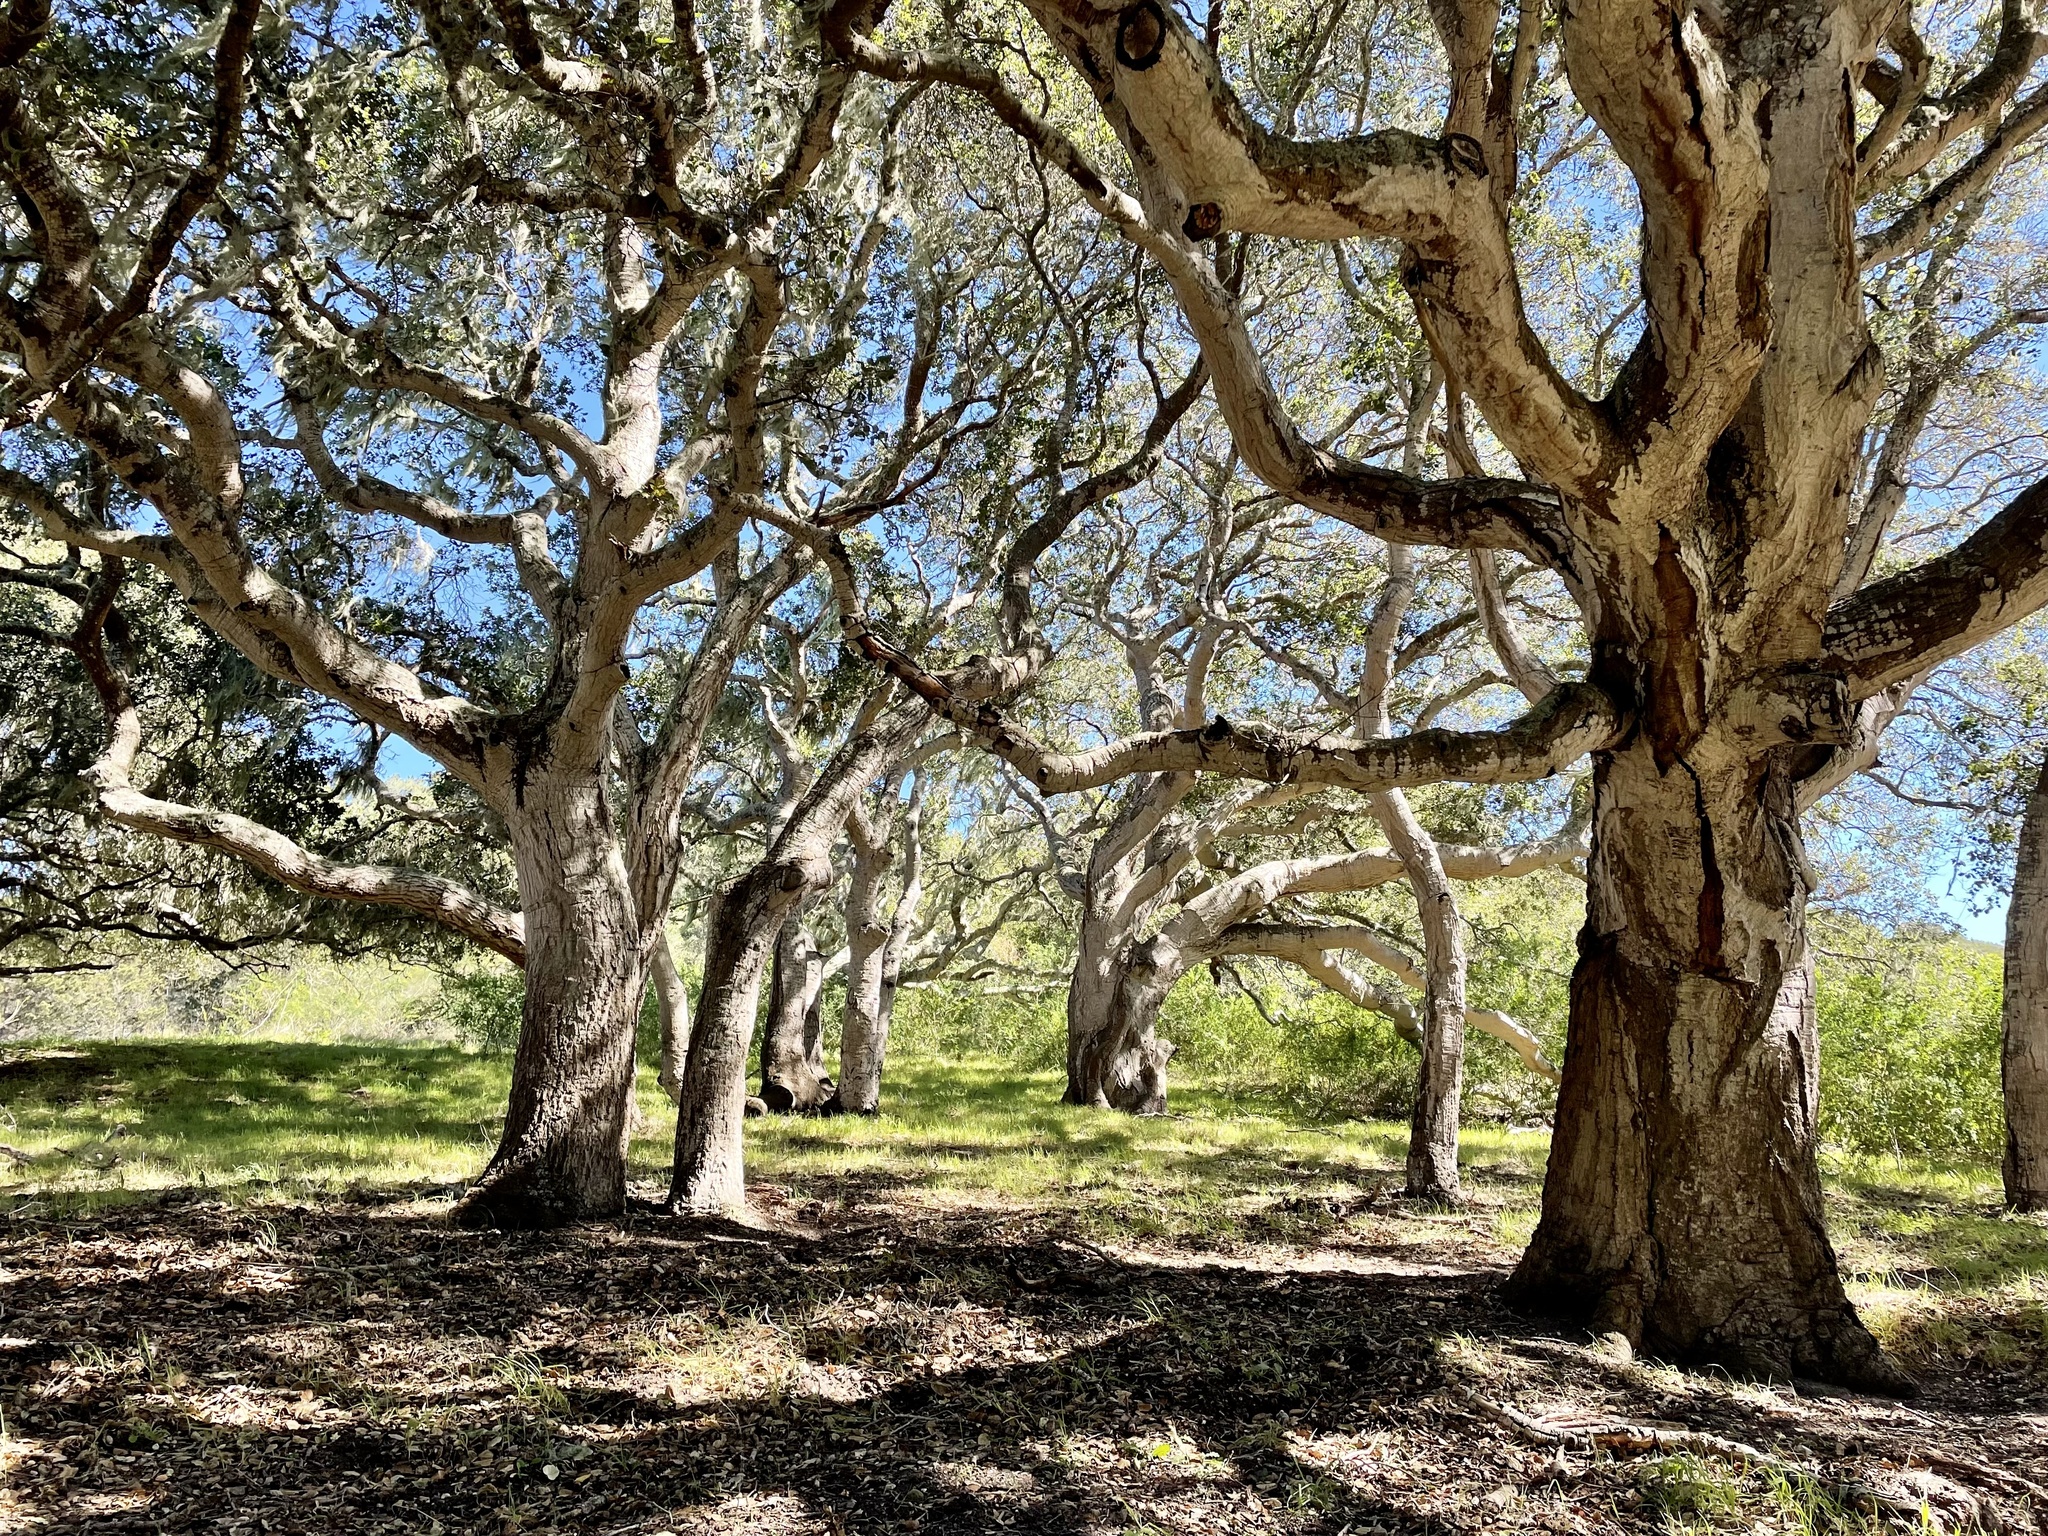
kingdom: Plantae
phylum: Tracheophyta
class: Magnoliopsida
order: Fagales
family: Fagaceae
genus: Quercus
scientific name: Quercus agrifolia
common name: California live oak
